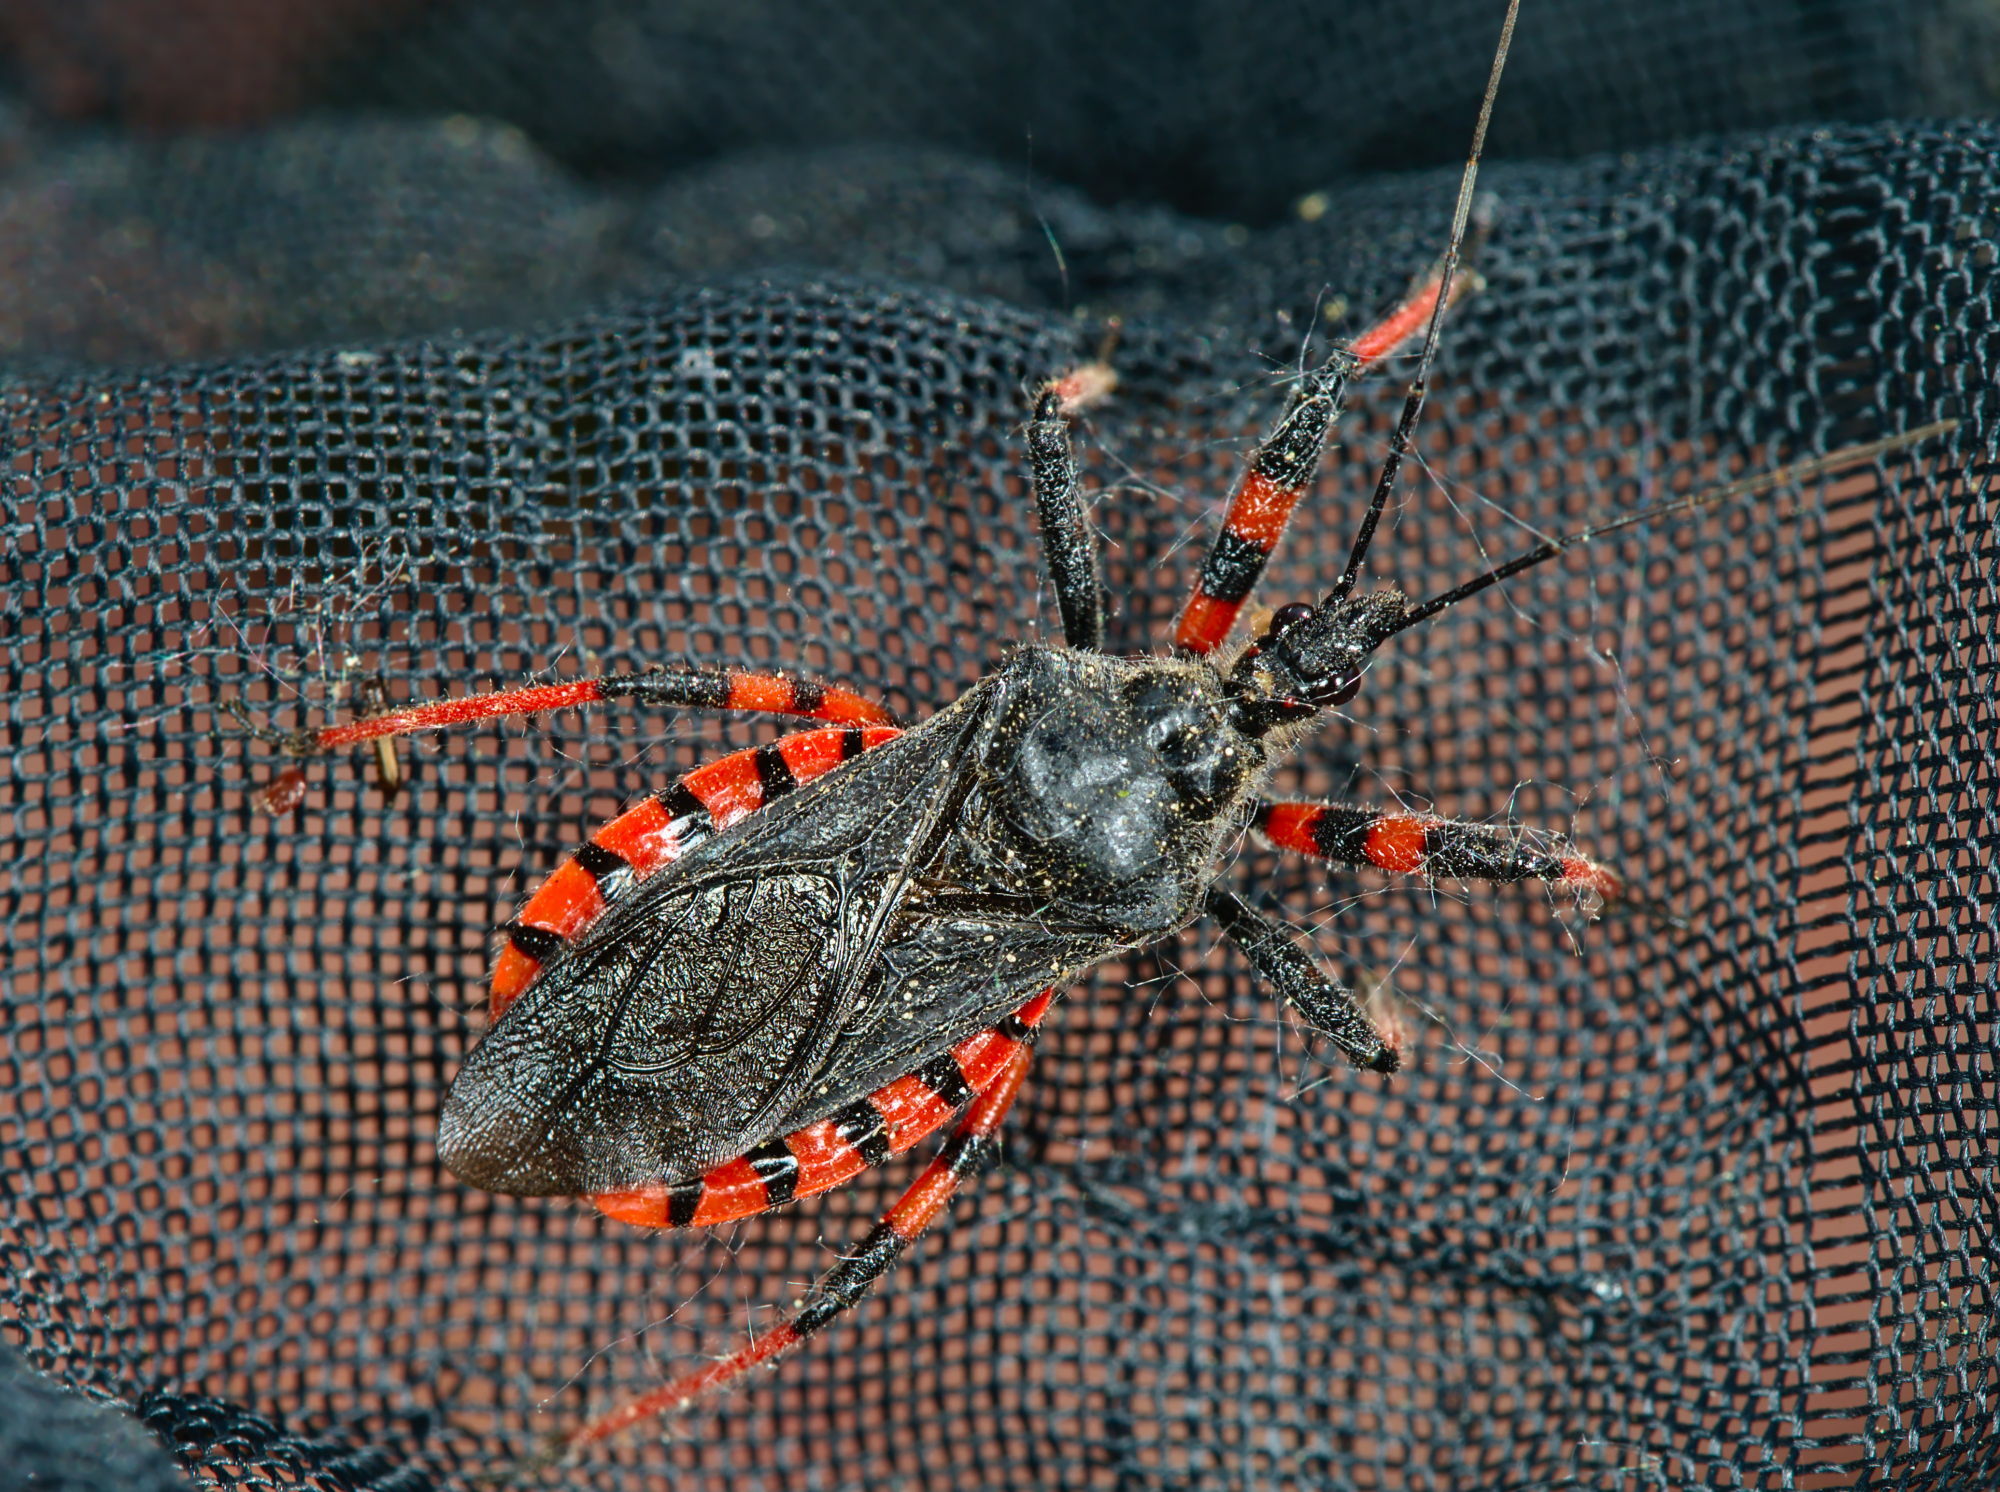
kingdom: Animalia
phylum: Arthropoda
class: Insecta
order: Hemiptera
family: Reduviidae
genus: Rhynocoris
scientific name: Rhynocoris annulatus
